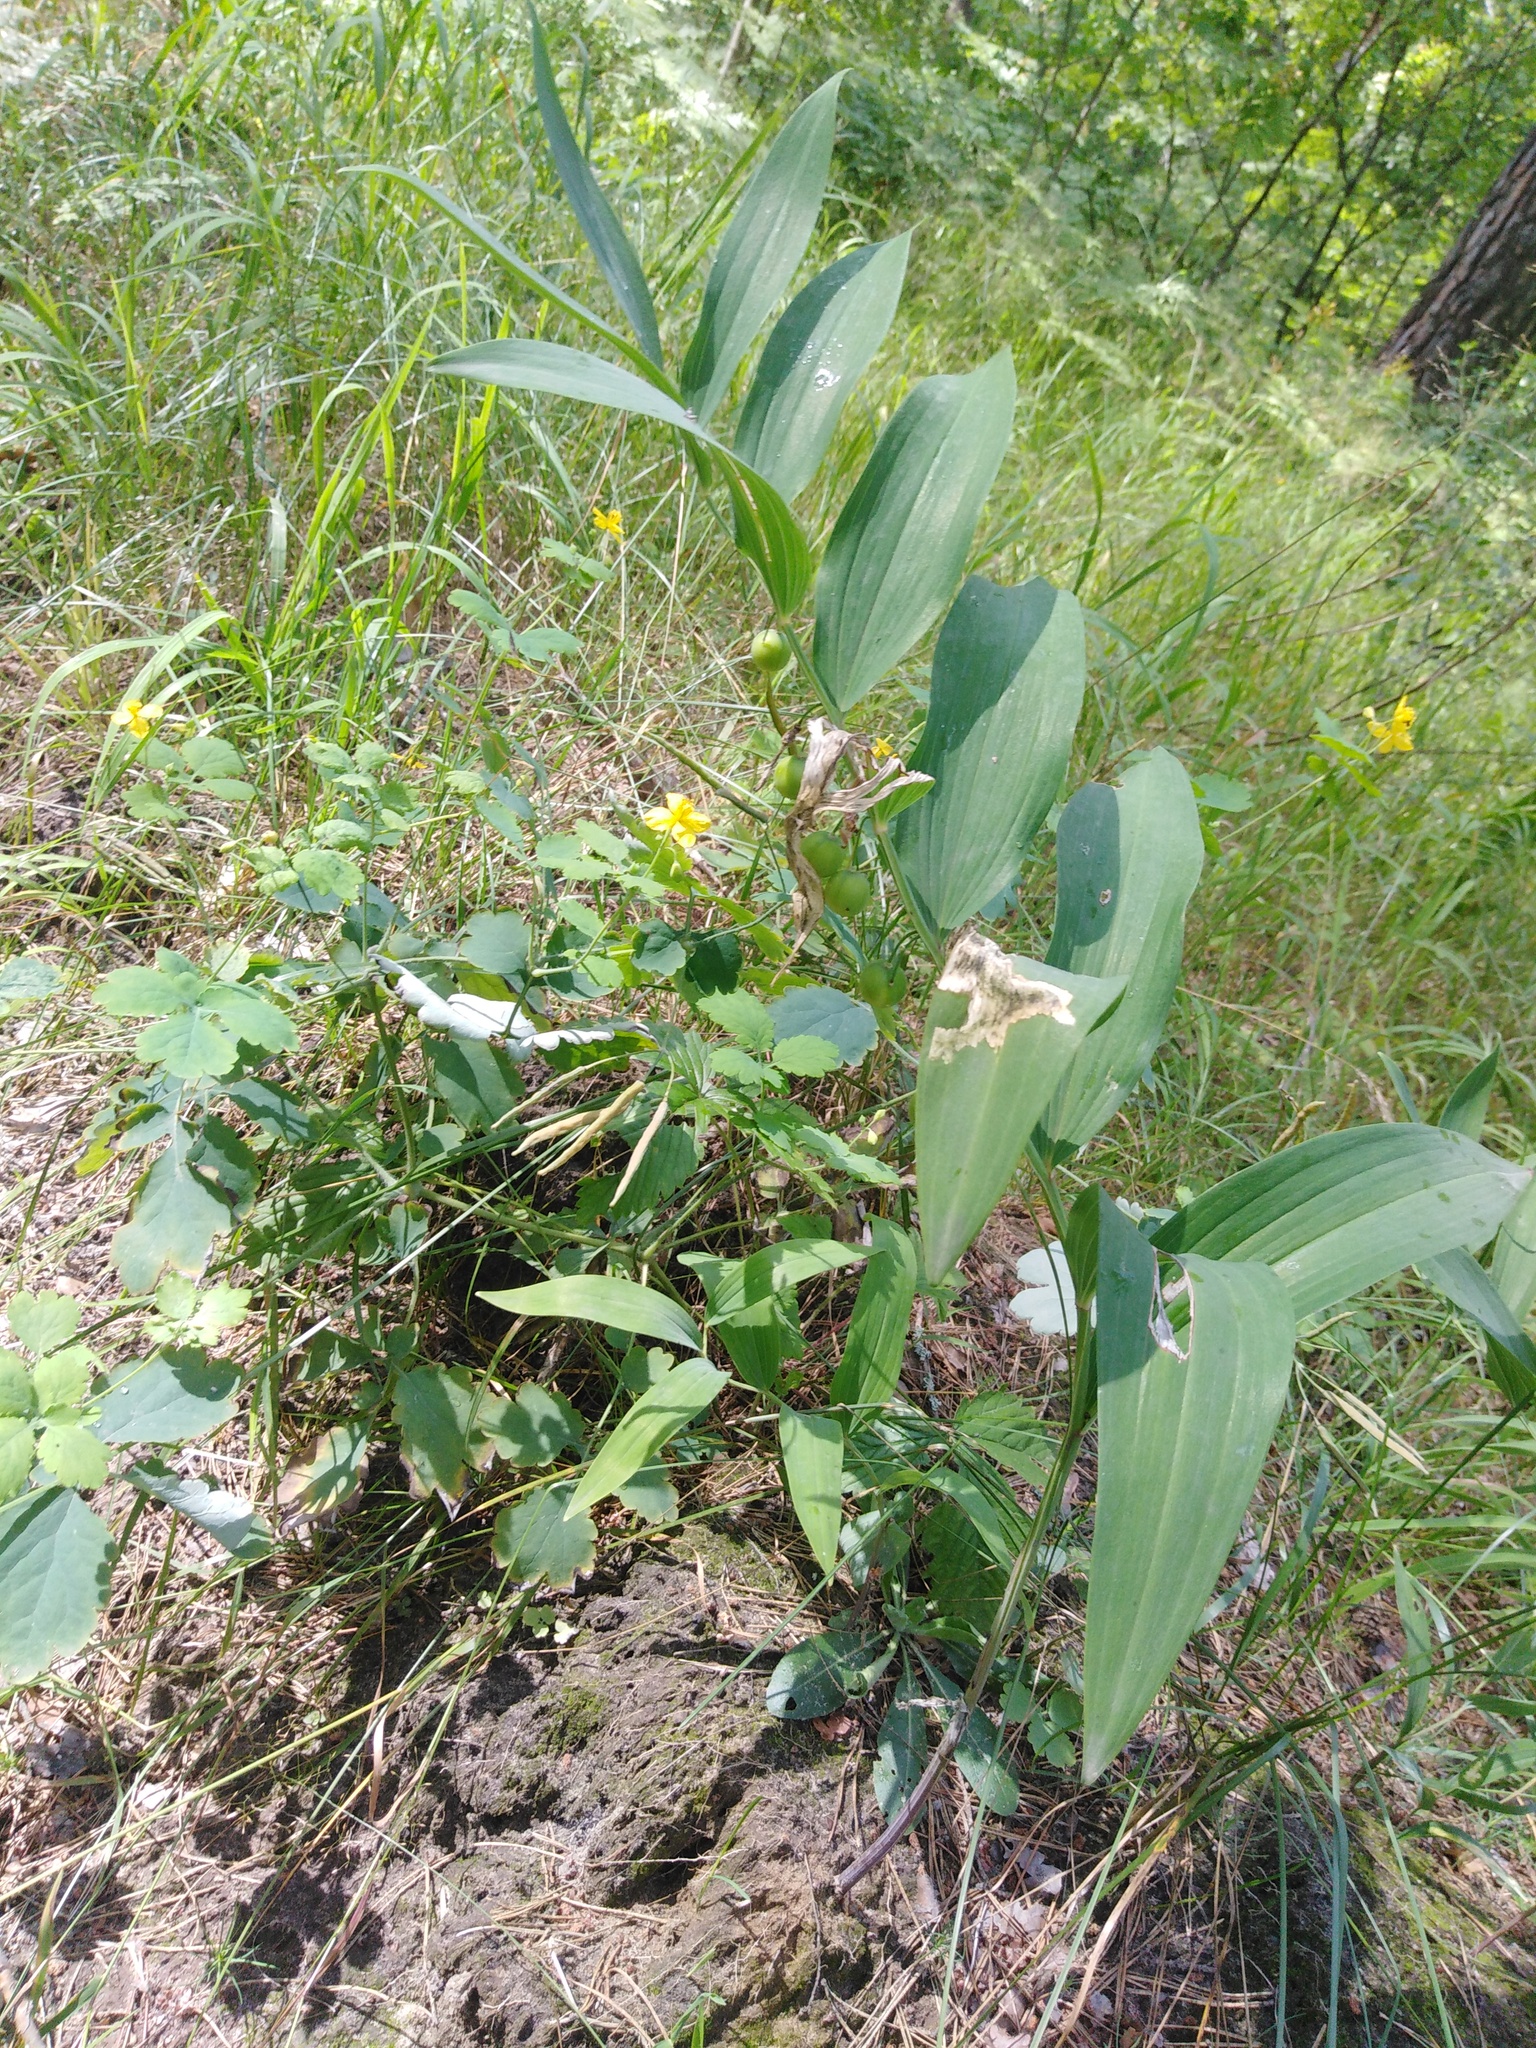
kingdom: Plantae
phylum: Tracheophyta
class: Liliopsida
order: Asparagales
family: Asparagaceae
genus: Polygonatum
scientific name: Polygonatum odoratum
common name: Angular solomon's-seal
